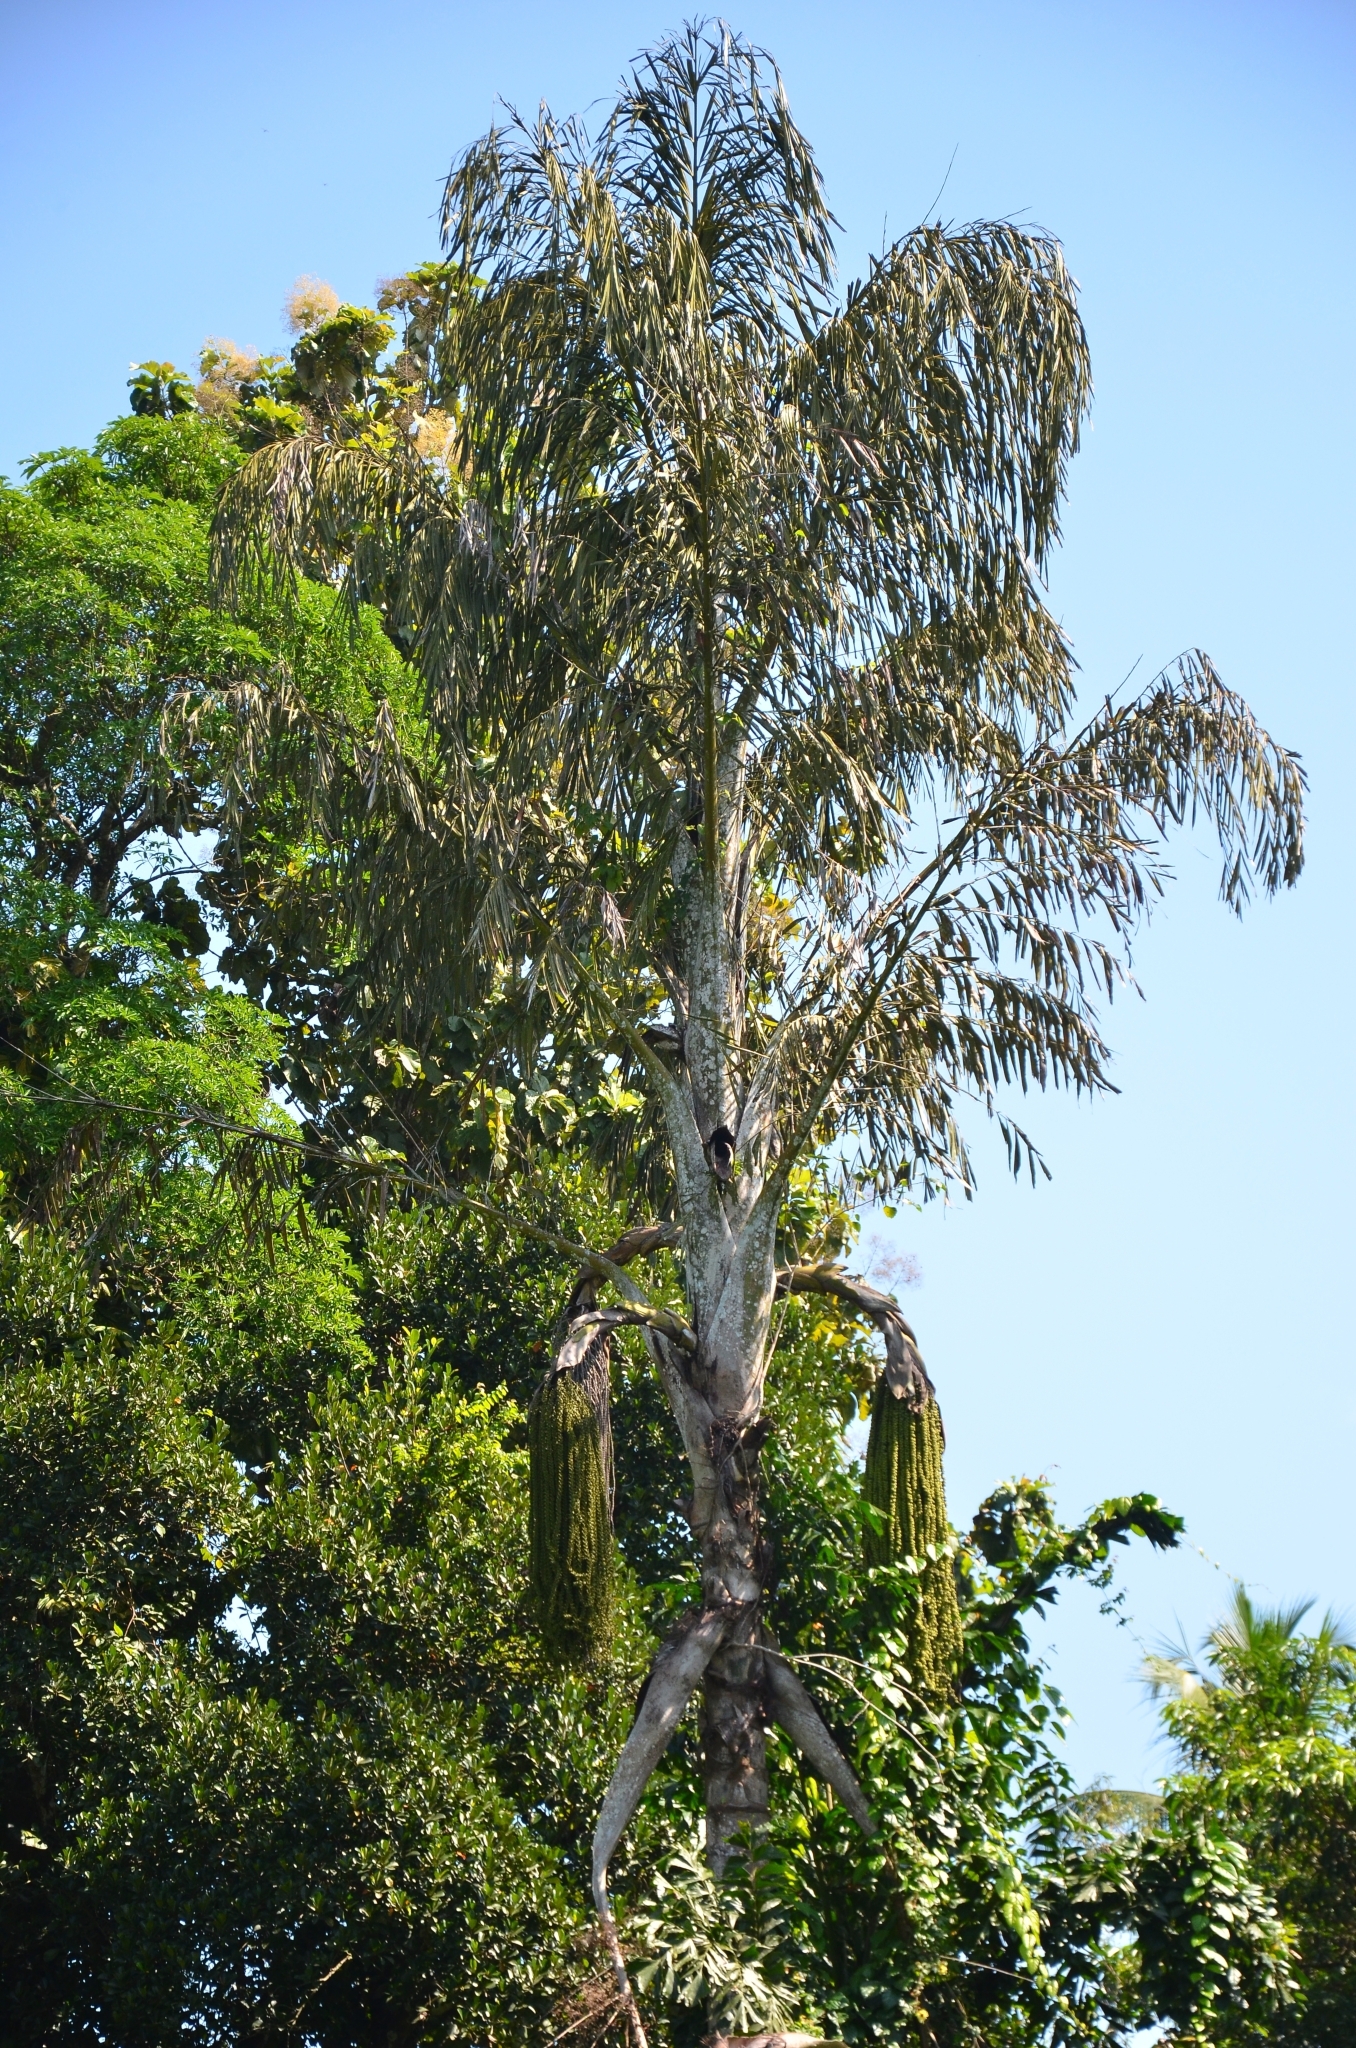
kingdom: Plantae
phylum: Tracheophyta
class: Liliopsida
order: Arecales
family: Arecaceae
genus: Caryota
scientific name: Caryota urens
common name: Jaggery palm
